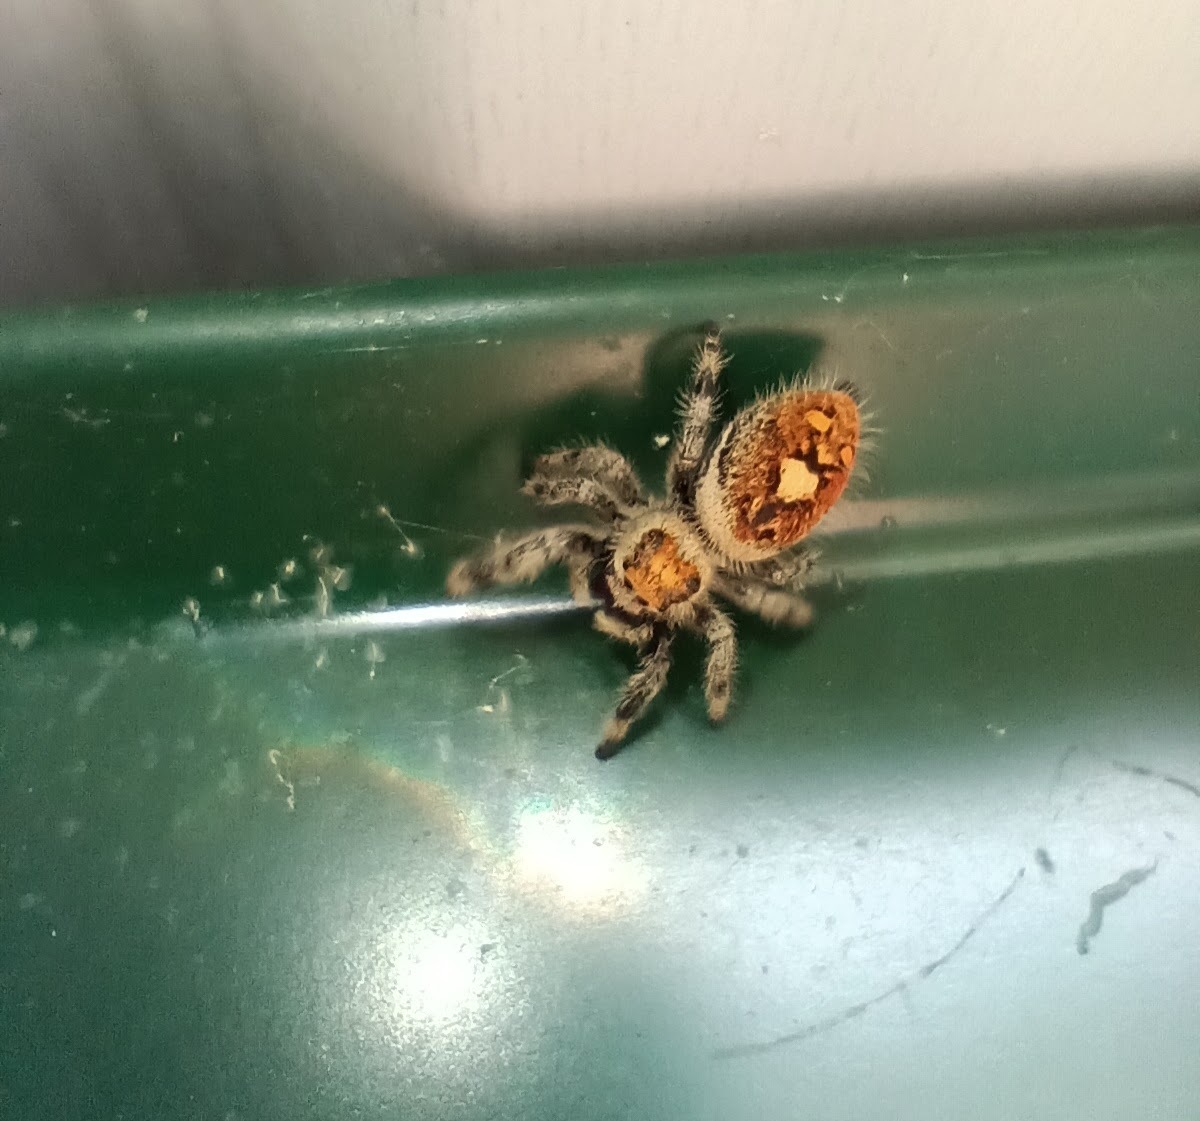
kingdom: Animalia
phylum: Arthropoda
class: Arachnida
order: Araneae
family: Salticidae
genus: Phidippus
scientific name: Phidippus regius
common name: Regal jumper
